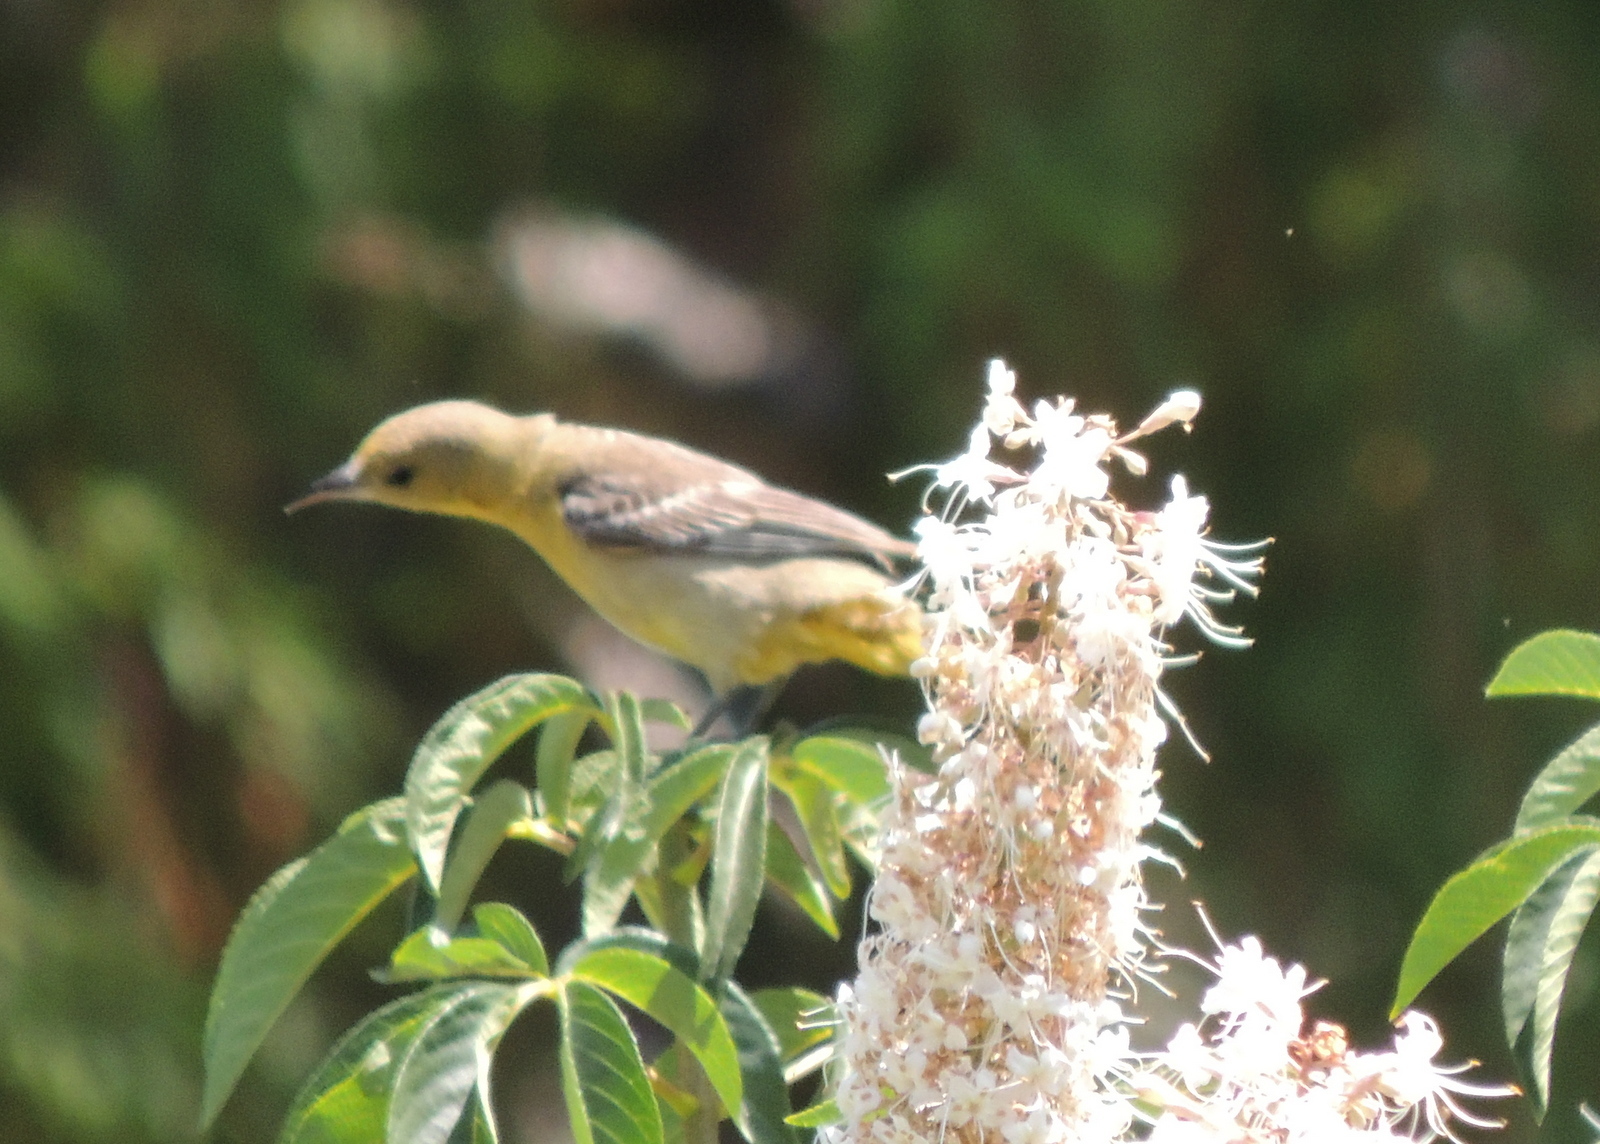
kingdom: Animalia
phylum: Chordata
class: Aves
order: Passeriformes
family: Icteridae
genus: Icterus
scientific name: Icterus cucullatus
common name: Hooded oriole
